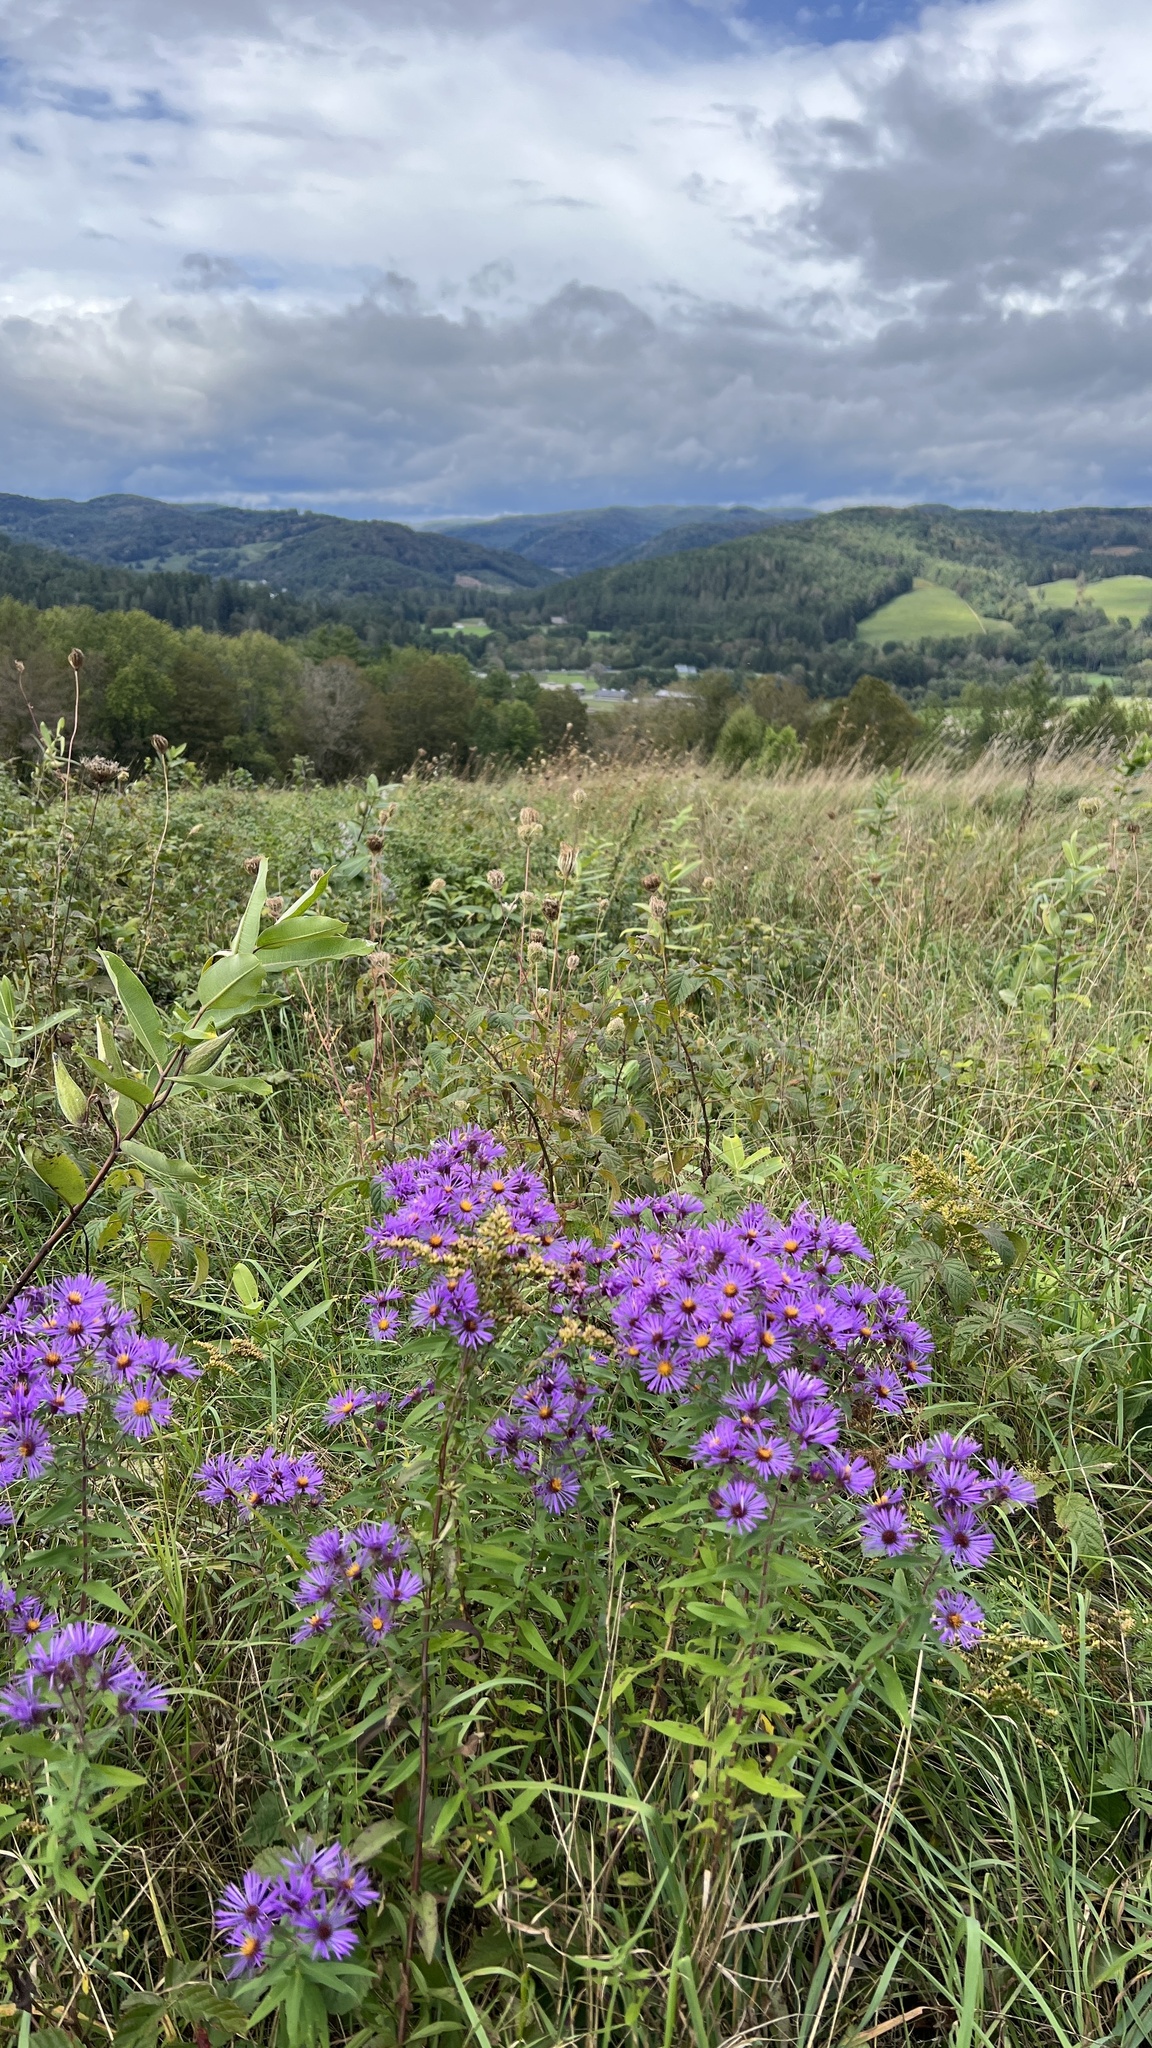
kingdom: Plantae
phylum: Tracheophyta
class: Magnoliopsida
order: Asterales
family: Asteraceae
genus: Symphyotrichum
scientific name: Symphyotrichum novae-angliae
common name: Michaelmas daisy
